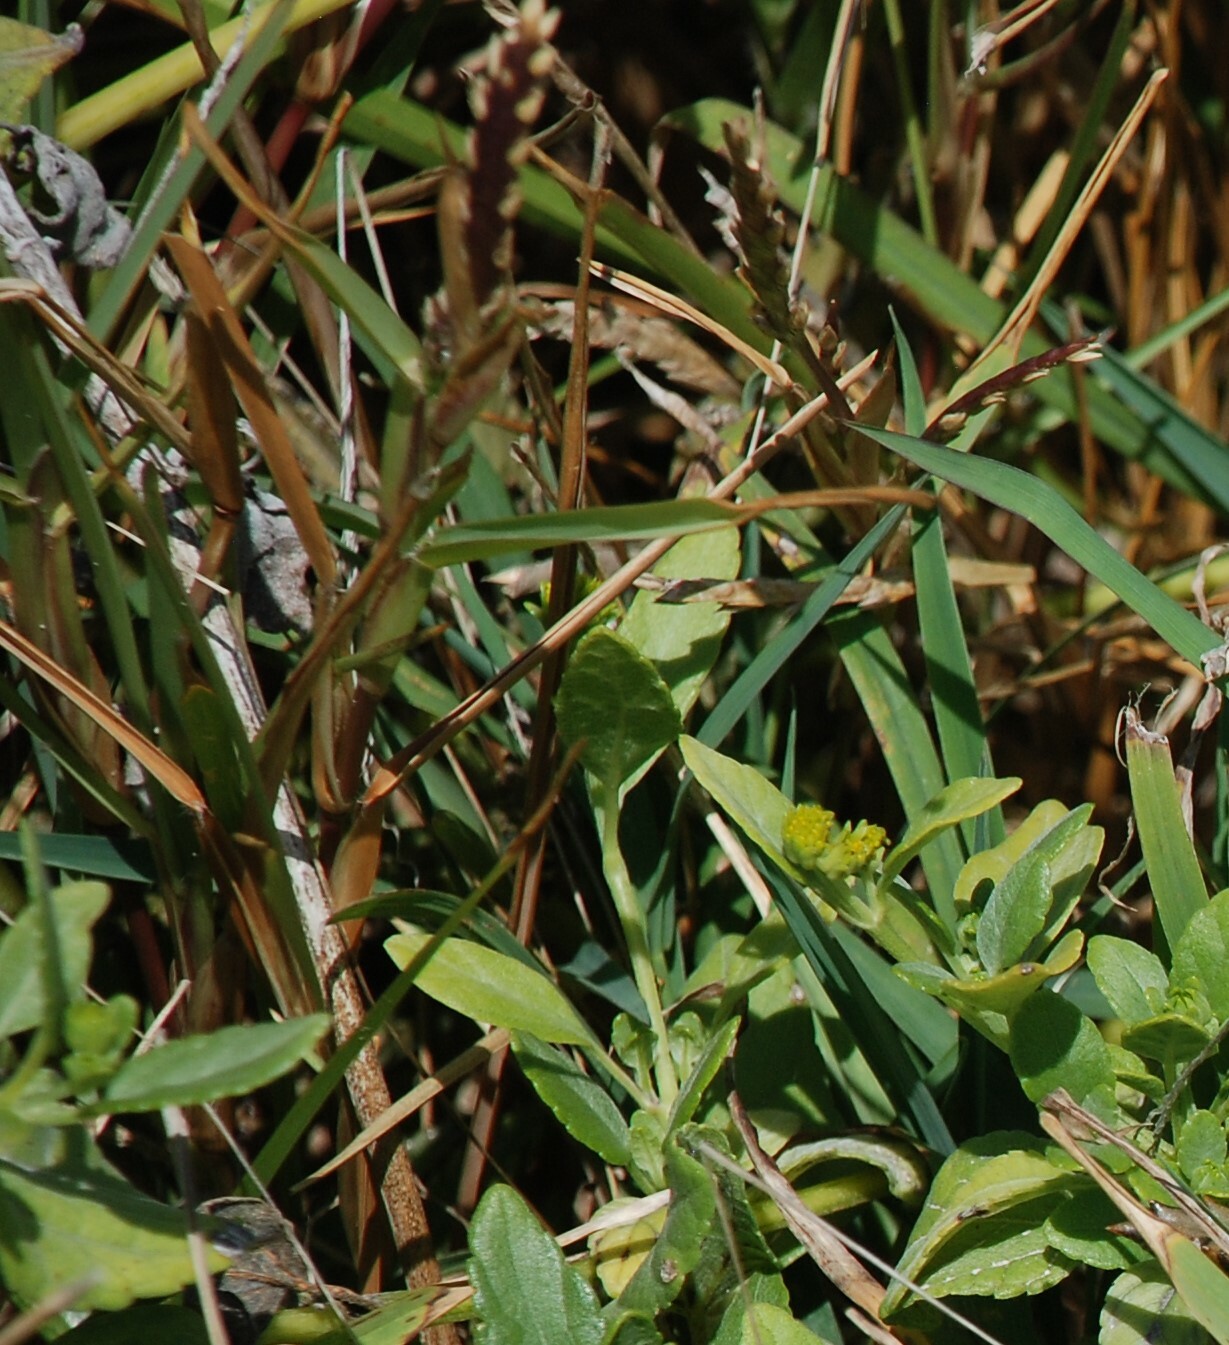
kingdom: Plantae
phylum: Tracheophyta
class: Liliopsida
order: Poales
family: Poaceae
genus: Stenotaphrum
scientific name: Stenotaphrum secundatum
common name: St. augustine grass
